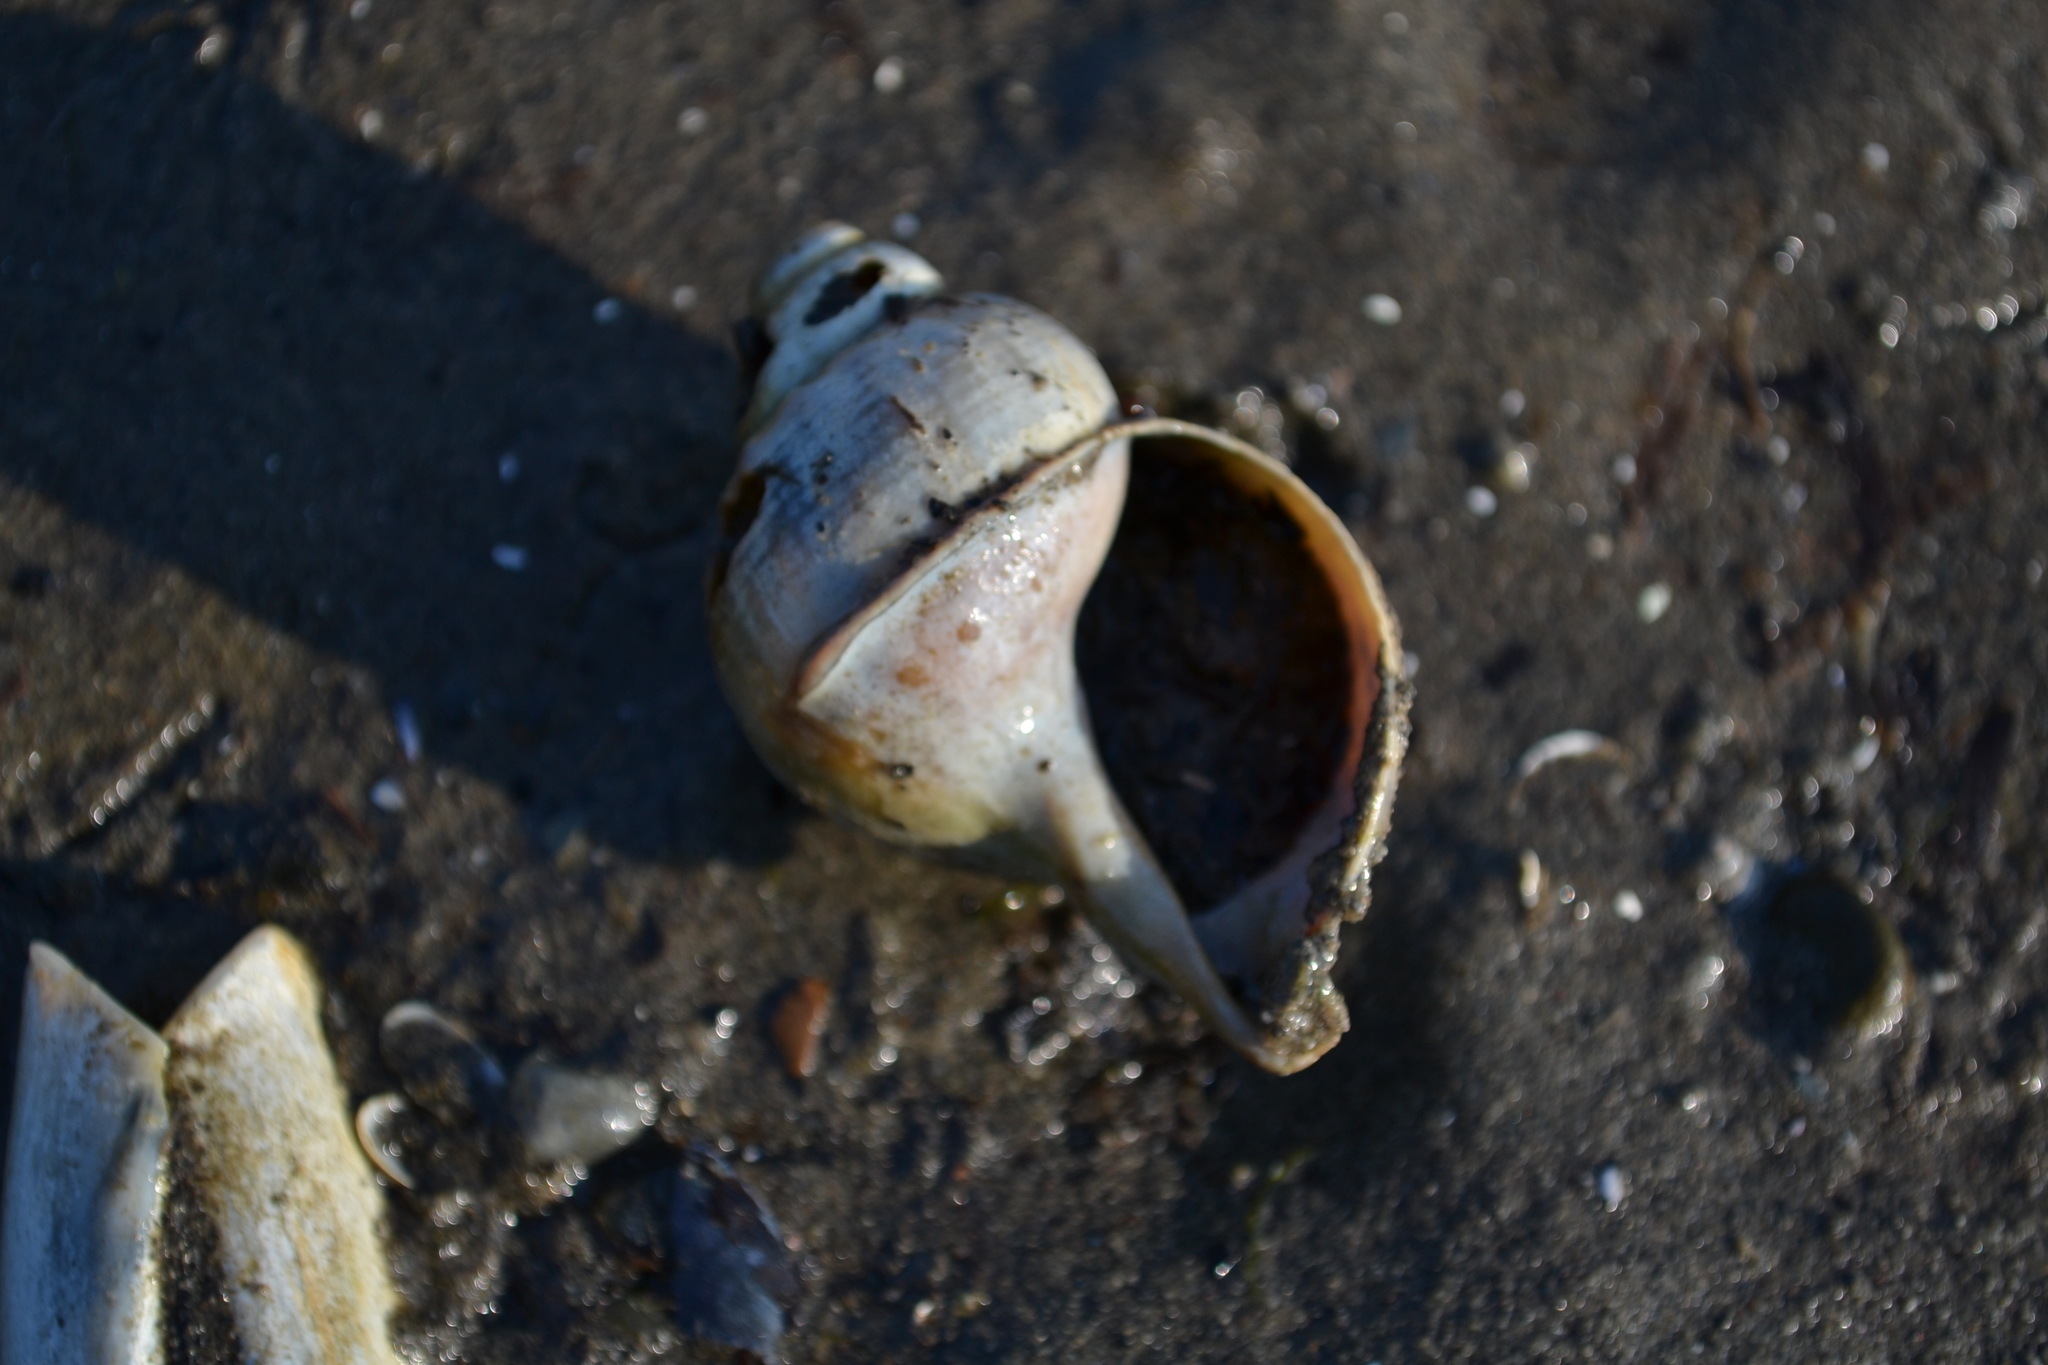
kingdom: Animalia
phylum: Mollusca
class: Gastropoda
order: Neogastropoda
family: Buccinidae
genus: Buccinum
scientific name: Buccinum undatum
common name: Common whelk
